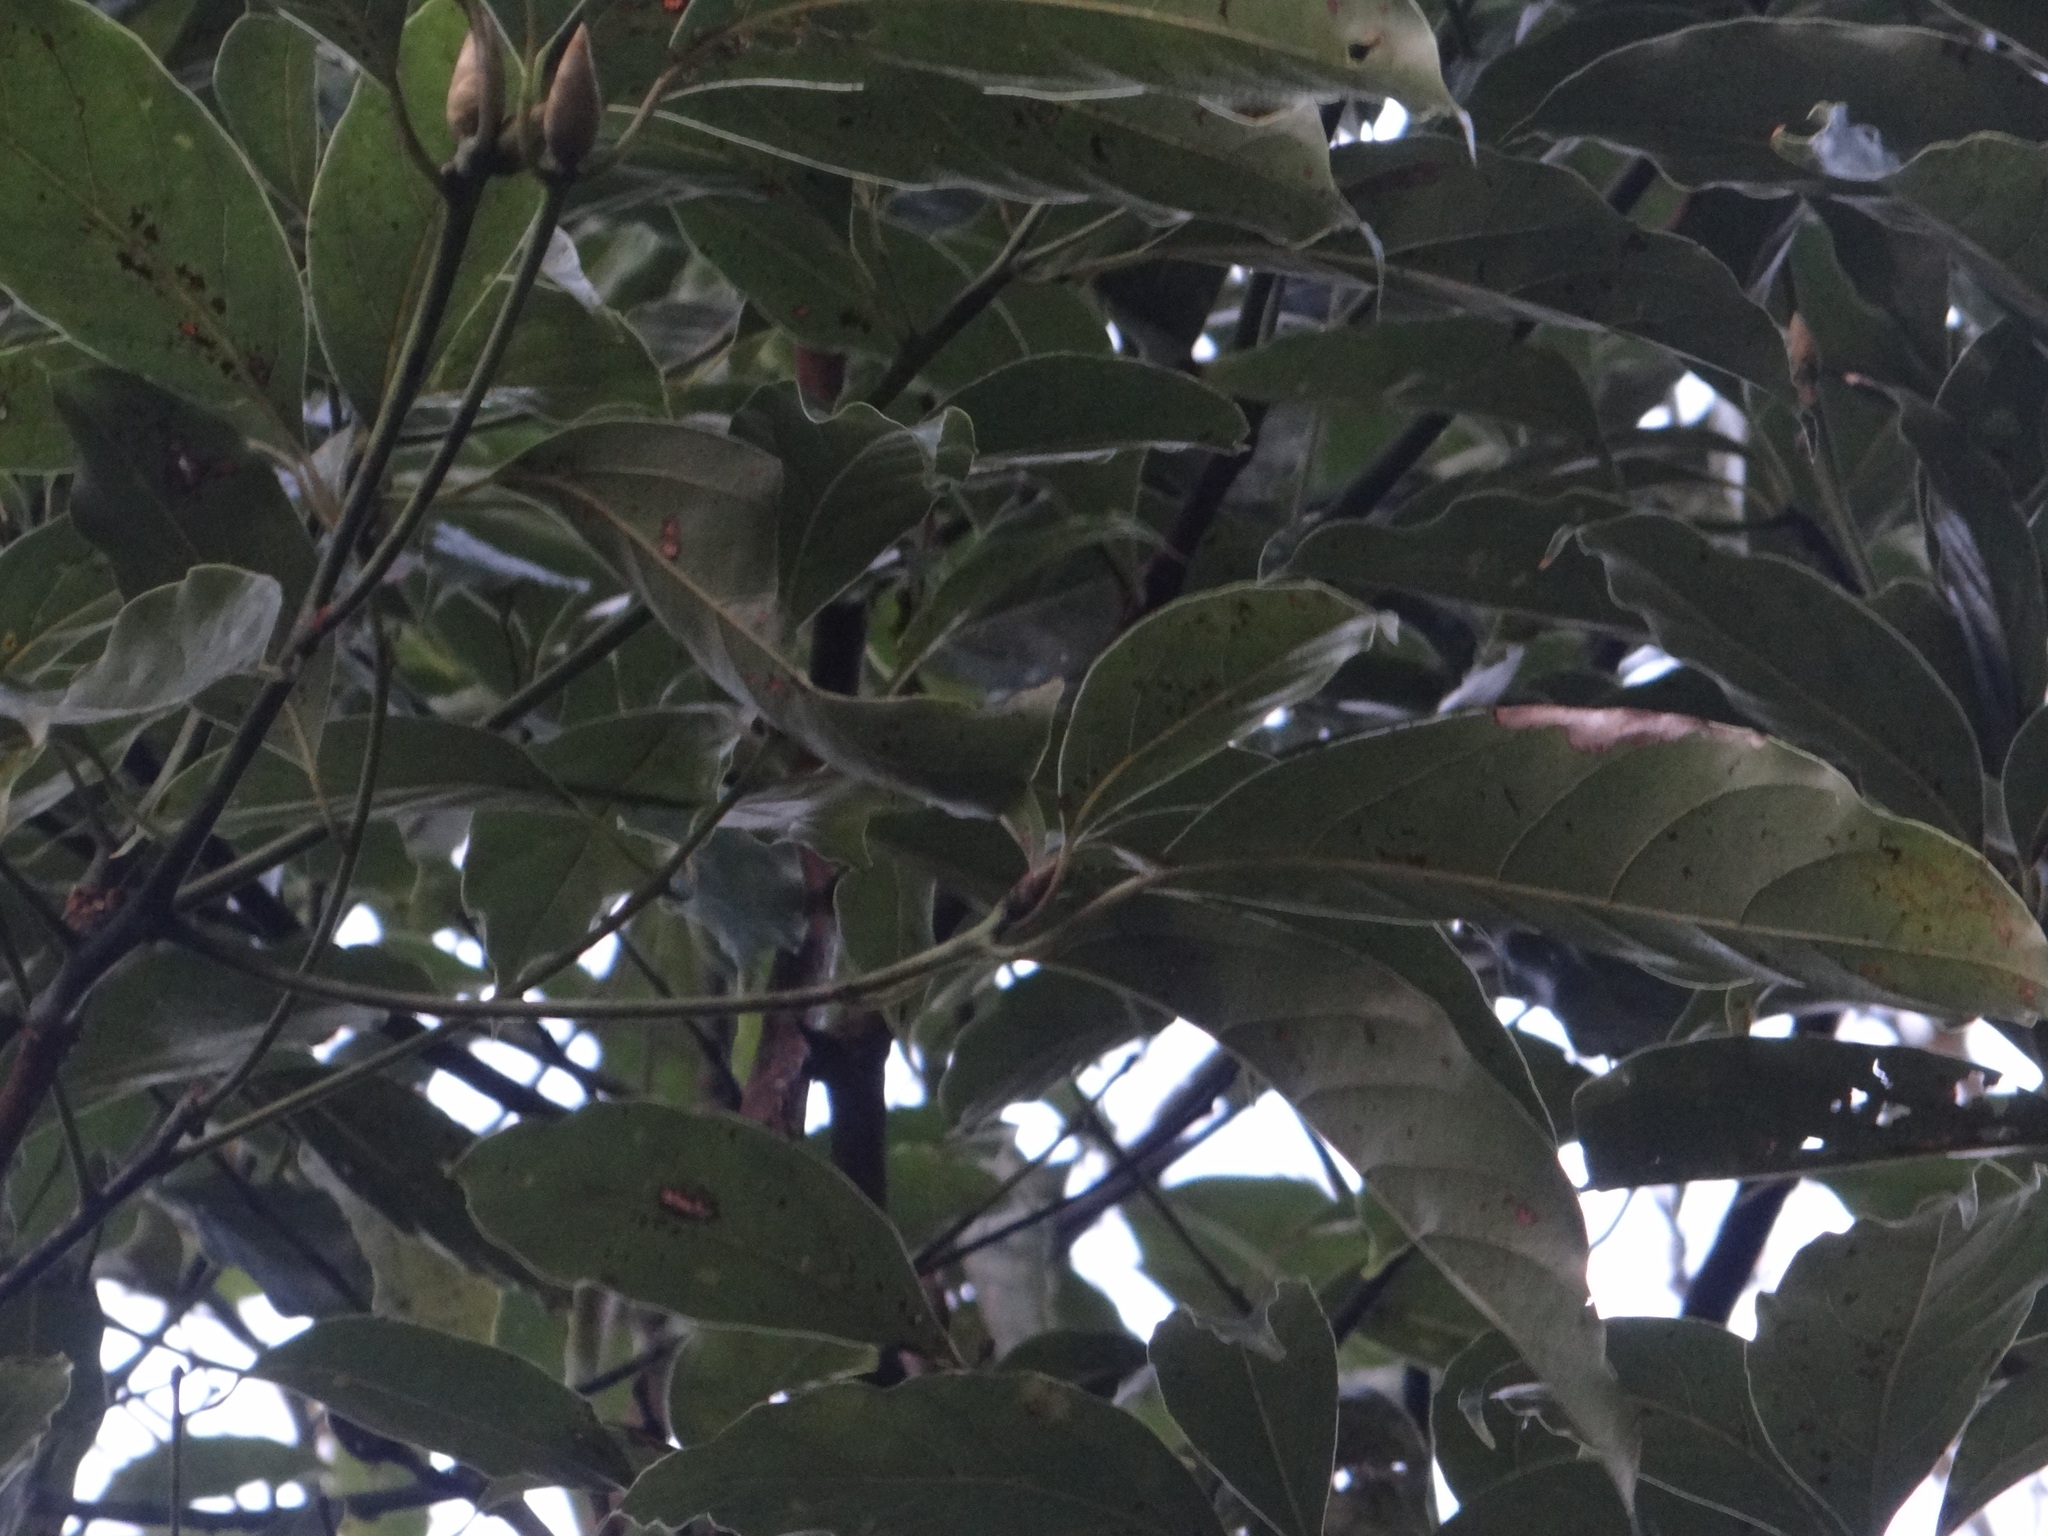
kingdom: Plantae
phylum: Tracheophyta
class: Magnoliopsida
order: Laurales
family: Lauraceae
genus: Cinnamomum
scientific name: Cinnamomum micranthum
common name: Chinese-sassafras
